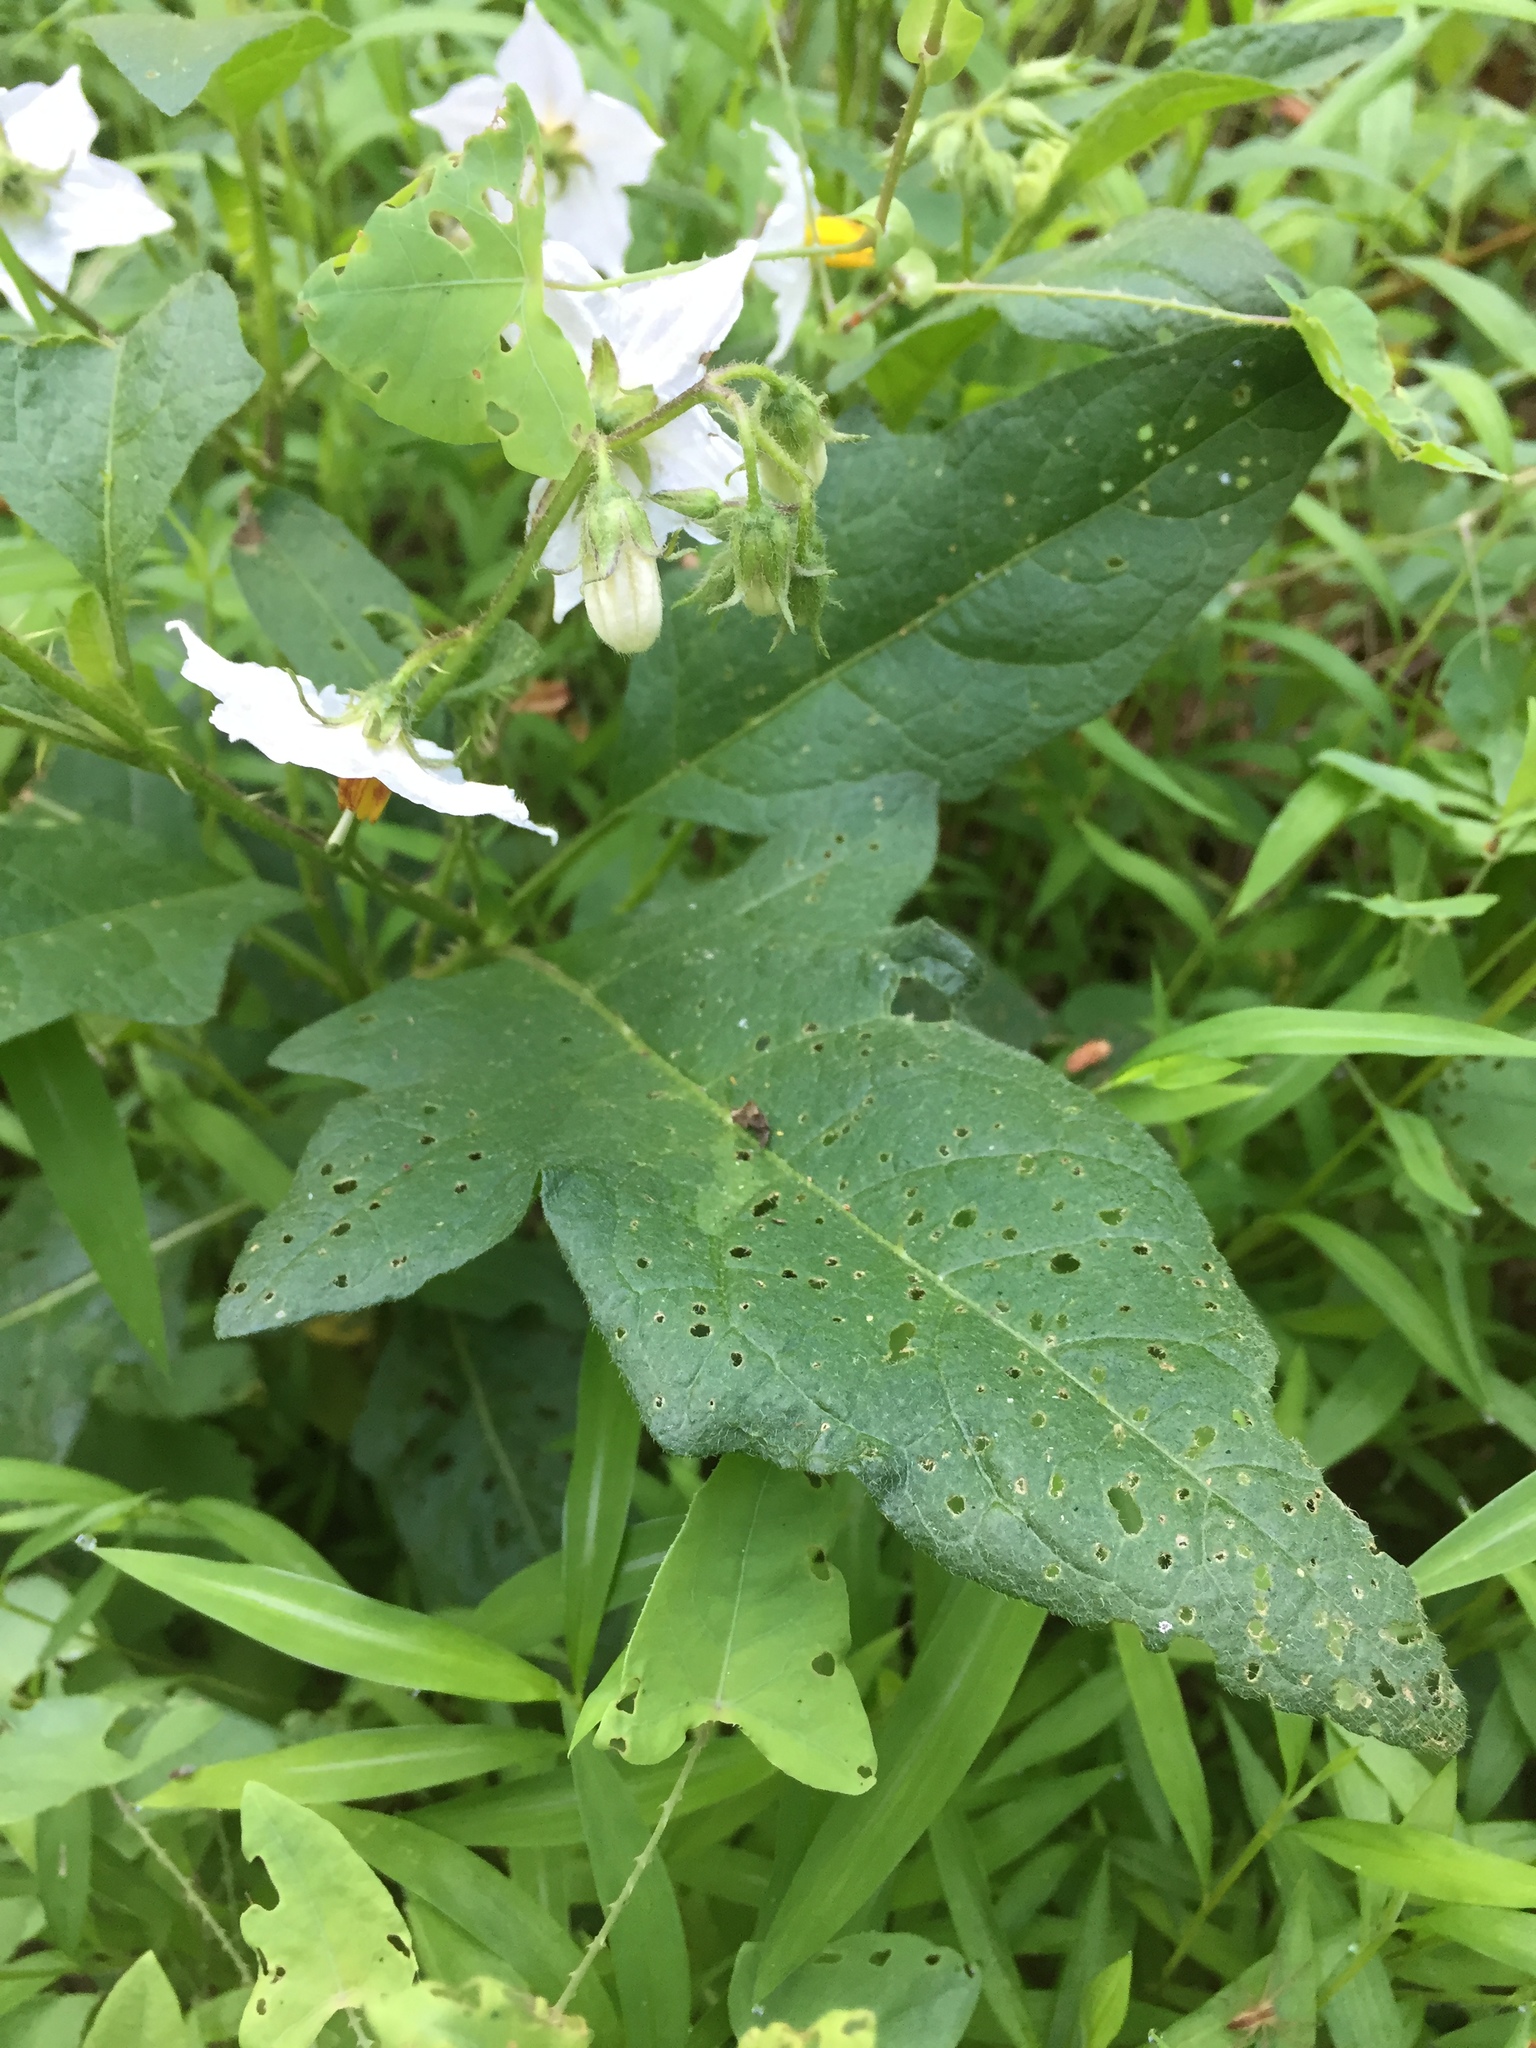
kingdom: Plantae
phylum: Tracheophyta
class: Magnoliopsida
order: Solanales
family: Solanaceae
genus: Solanum
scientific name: Solanum carolinense
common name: Horse-nettle
